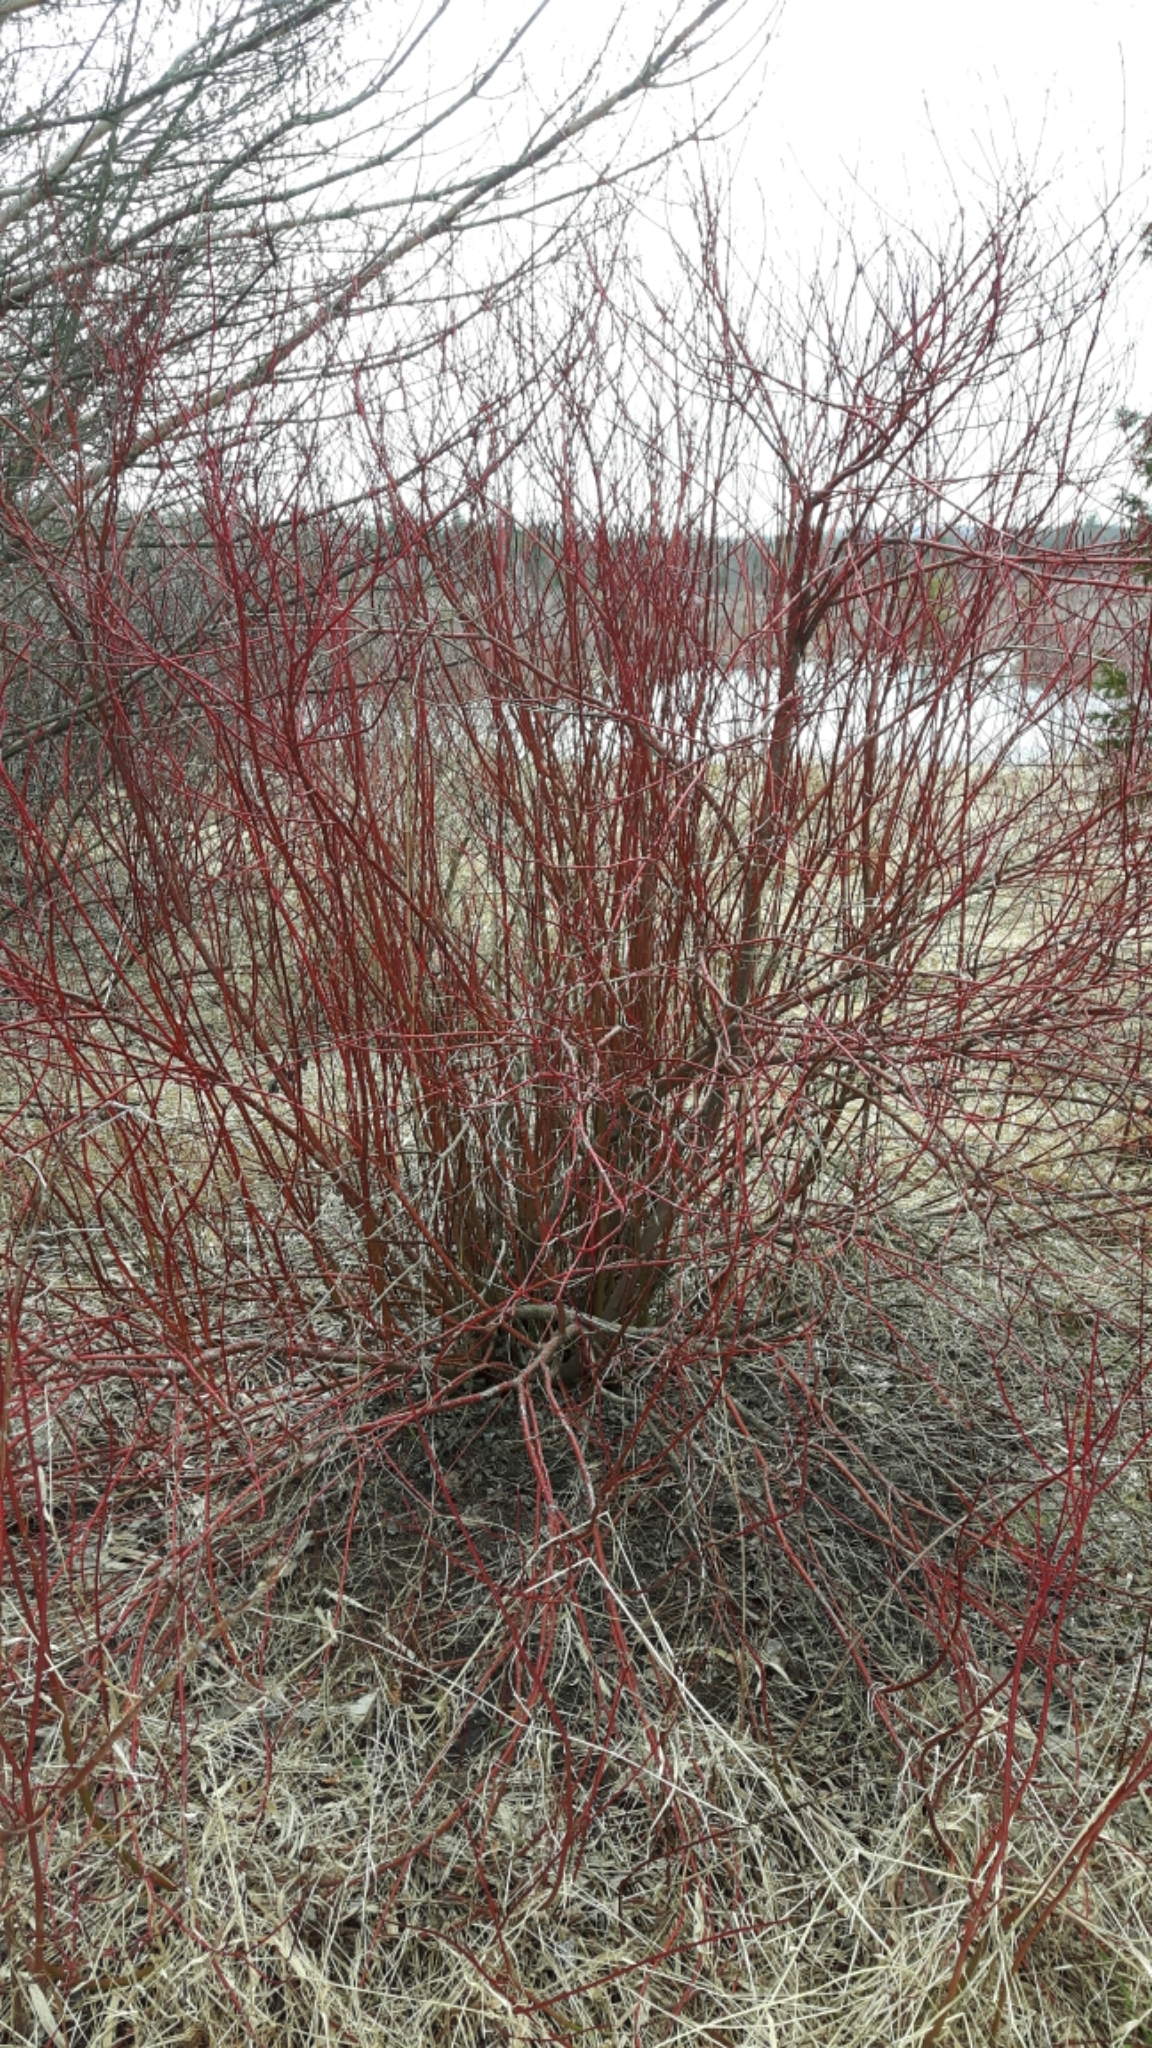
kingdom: Plantae
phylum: Tracheophyta
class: Magnoliopsida
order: Cornales
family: Cornaceae
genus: Cornus
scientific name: Cornus sericea
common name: Red-osier dogwood
